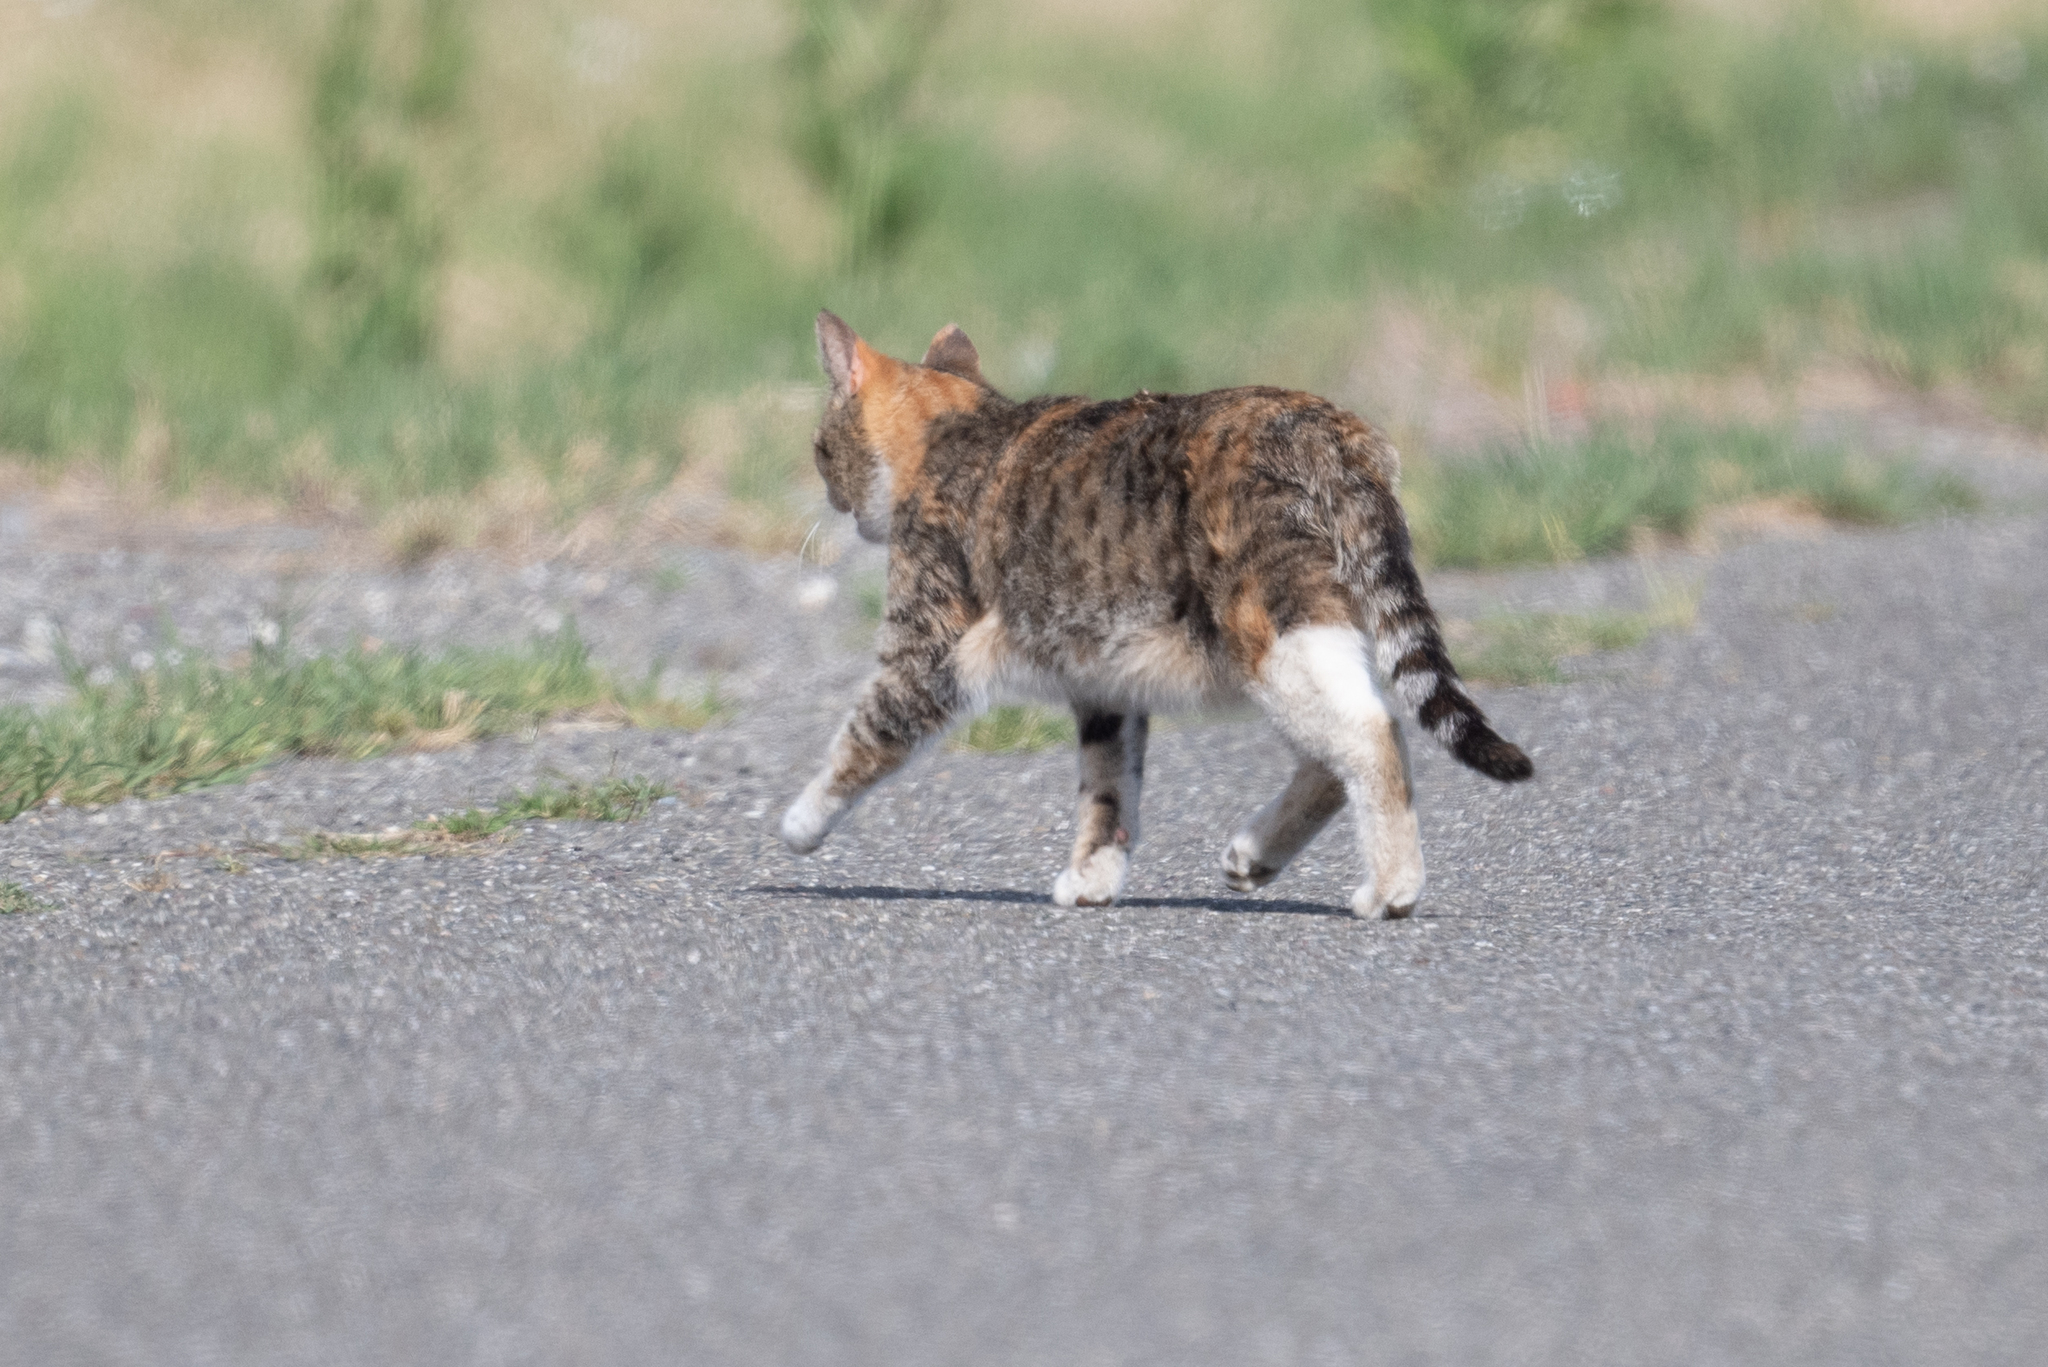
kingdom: Animalia
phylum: Chordata
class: Mammalia
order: Carnivora
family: Felidae
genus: Felis
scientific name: Felis catus
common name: Domestic cat
